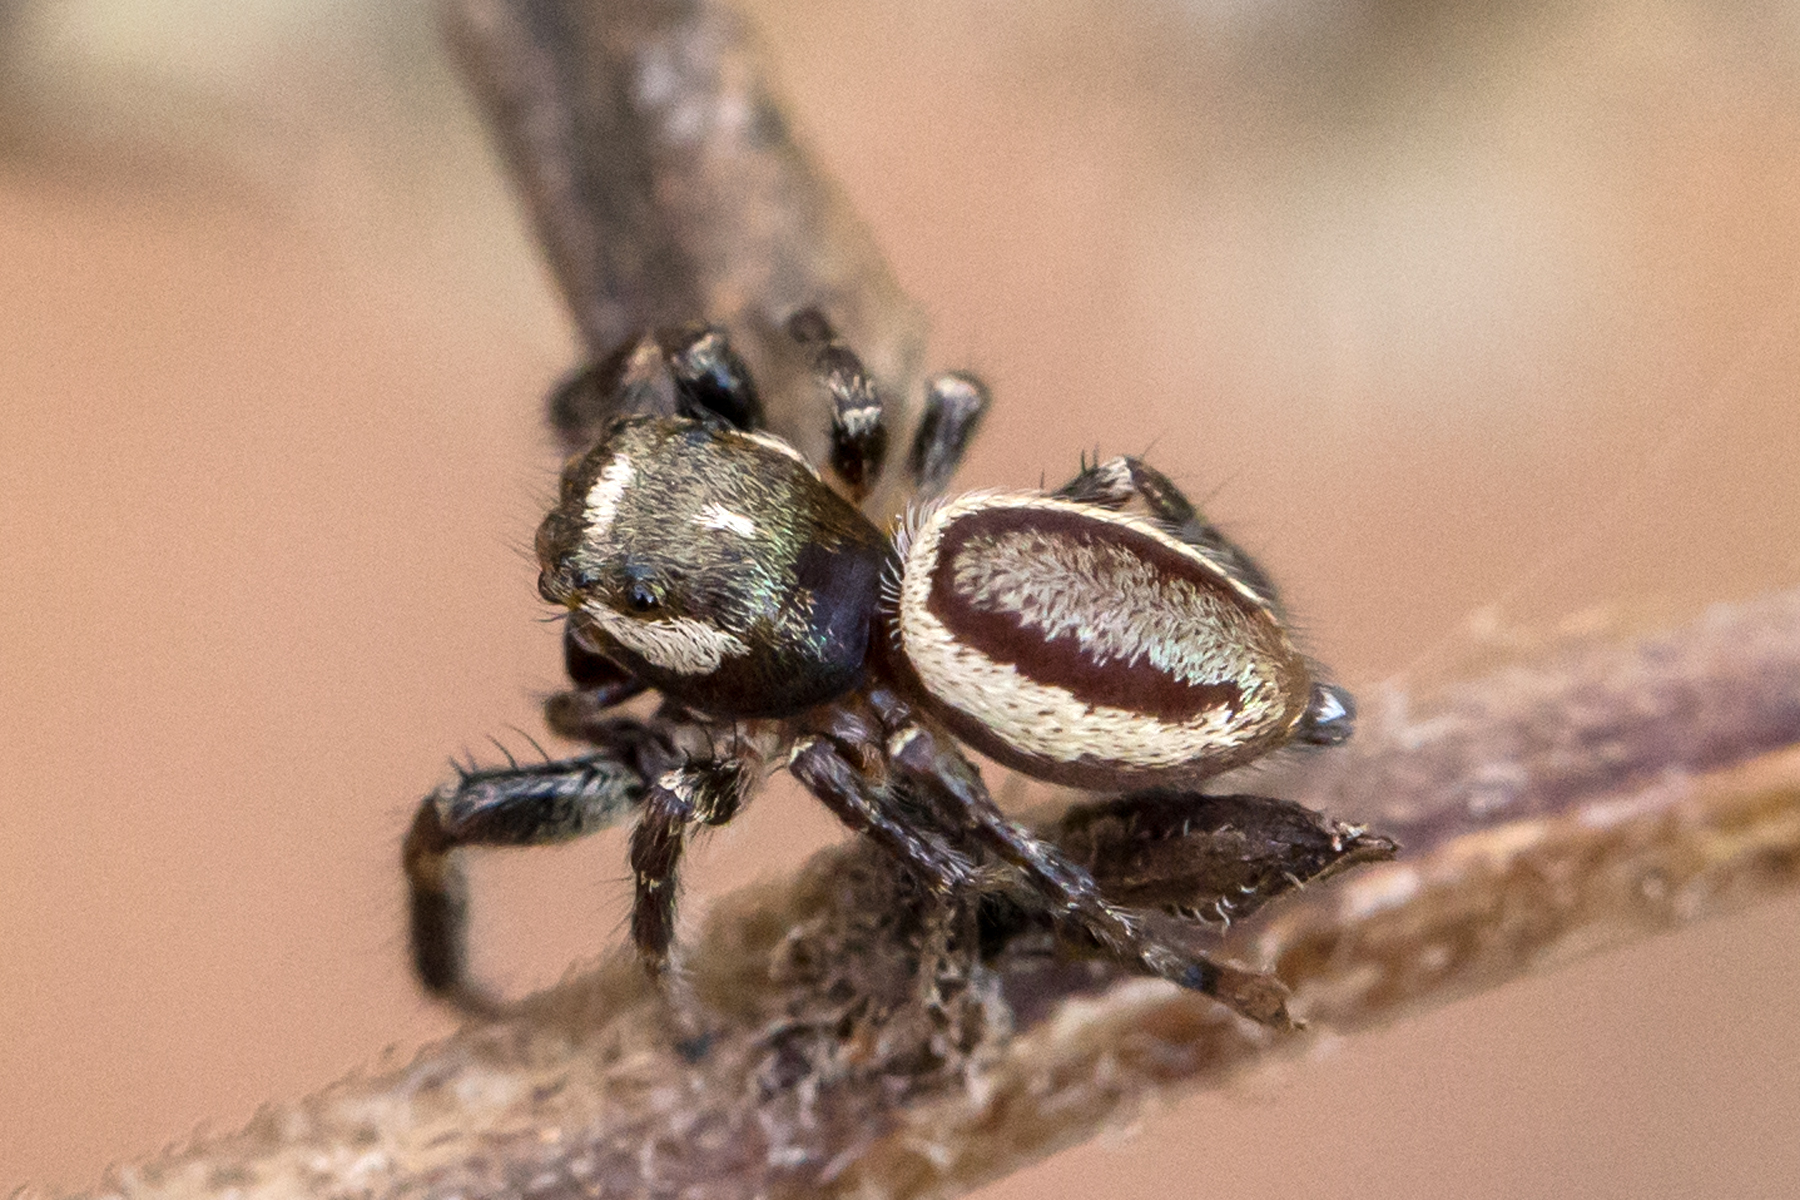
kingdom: Animalia
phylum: Arthropoda
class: Arachnida
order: Araneae
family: Salticidae
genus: Eris
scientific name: Eris militaris
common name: Bronze jumper
